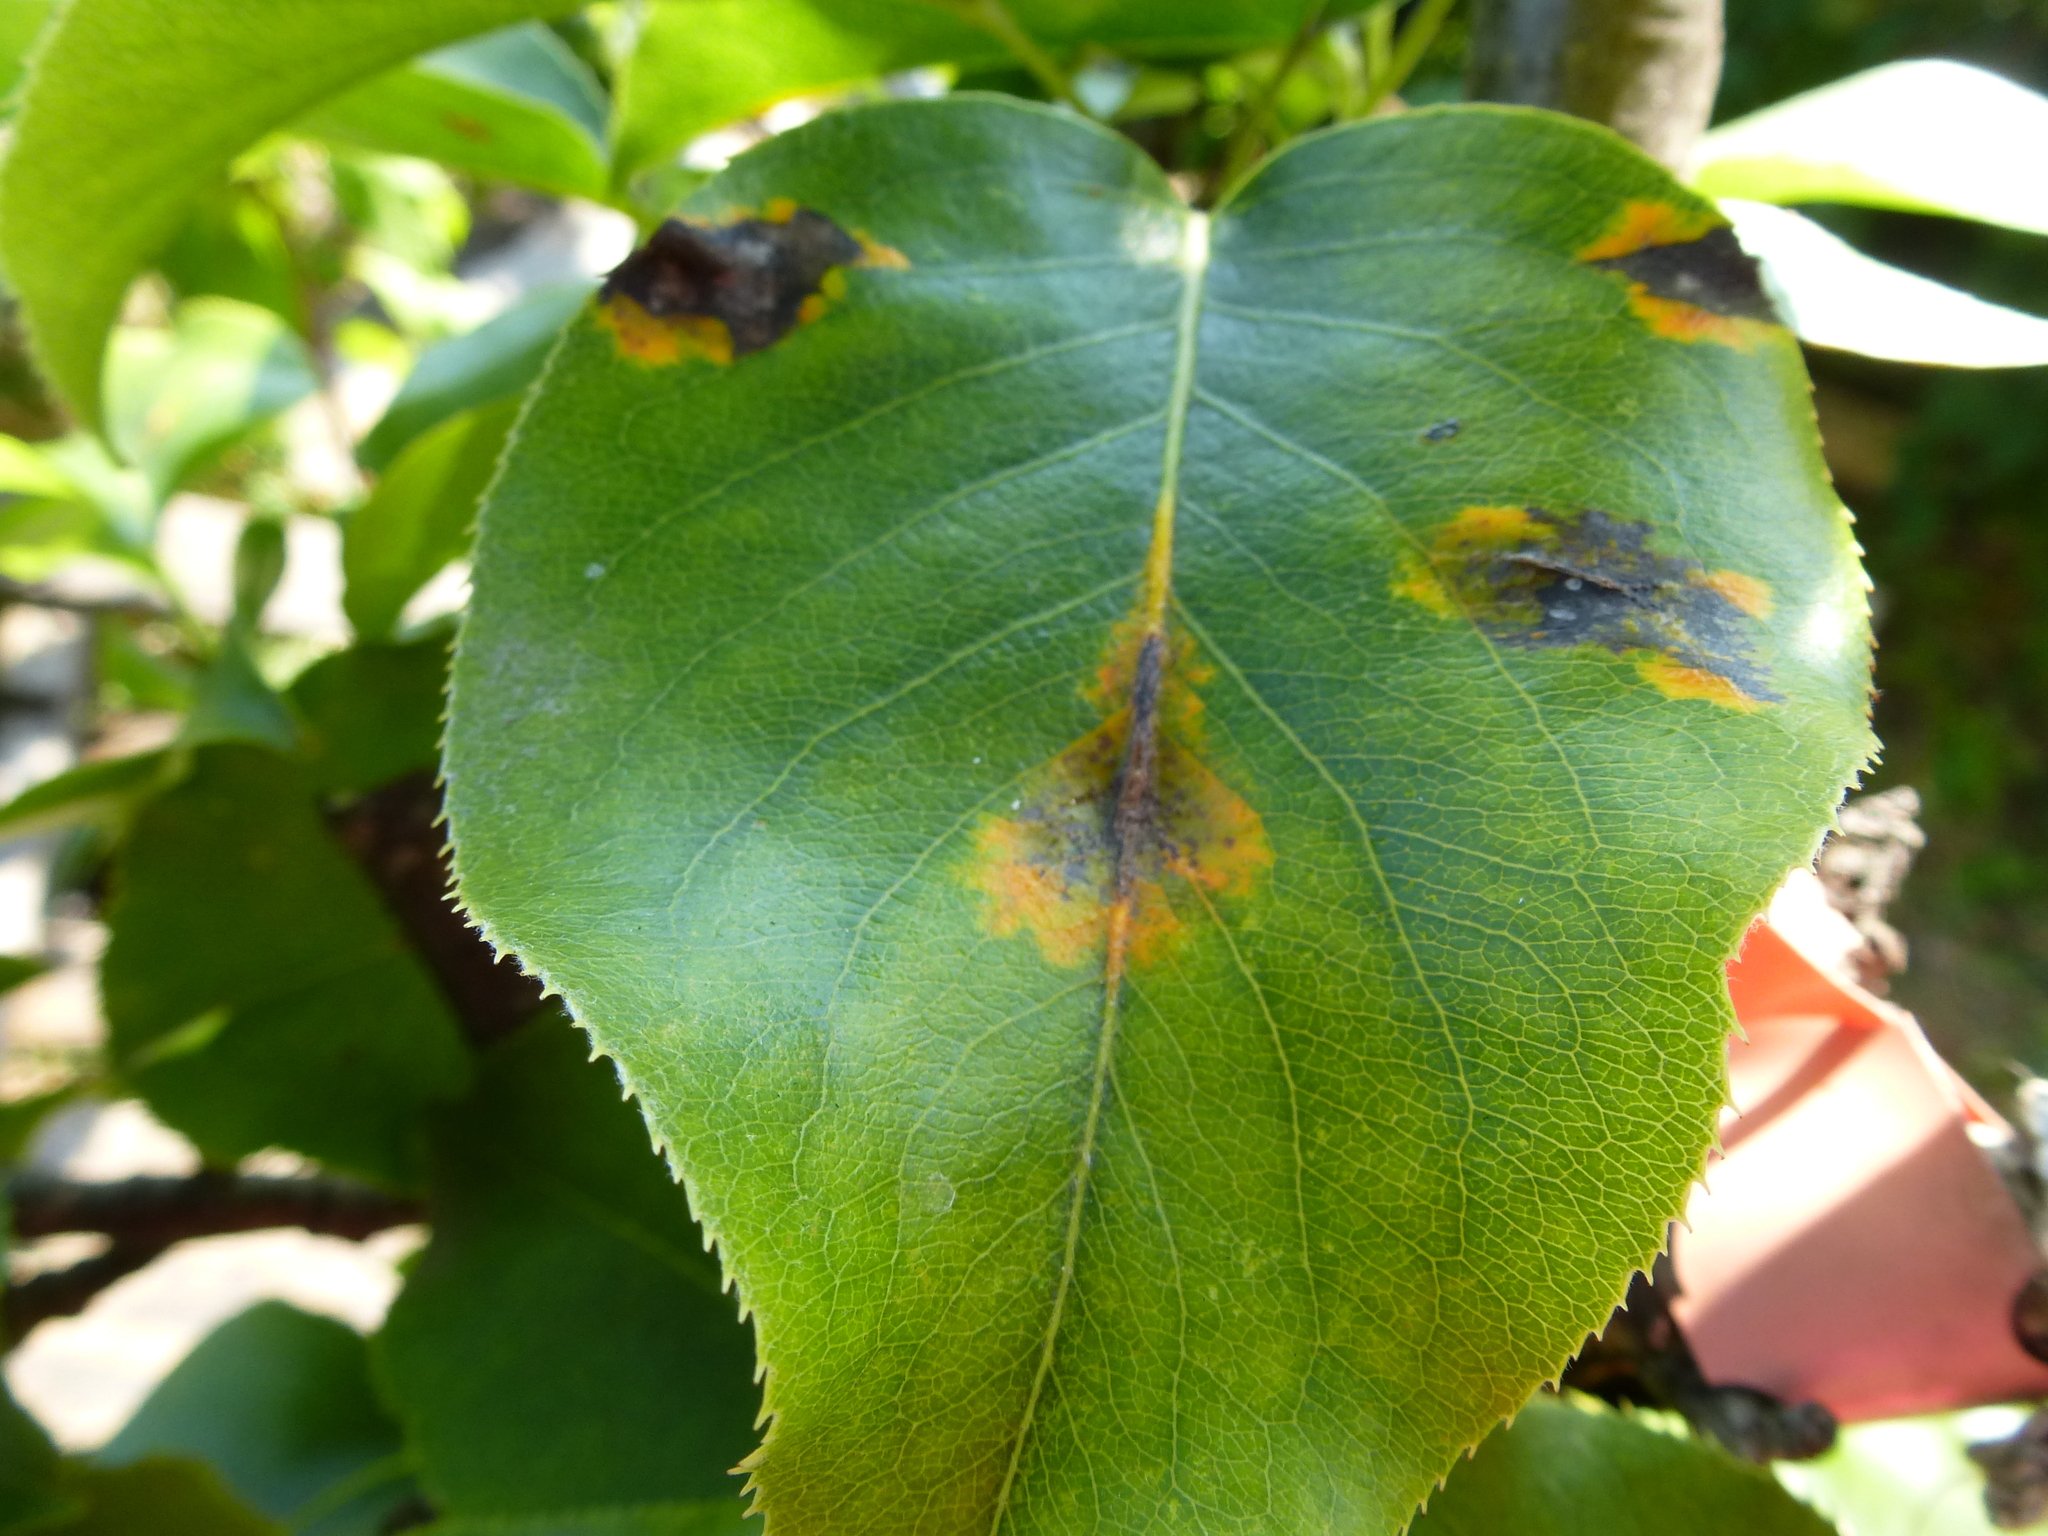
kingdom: Fungi
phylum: Basidiomycota
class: Pucciniomycetes
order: Pucciniales
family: Gymnosporangiaceae
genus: Gymnosporangium
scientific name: Gymnosporangium sabinae
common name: Pear trellis rust fungus
